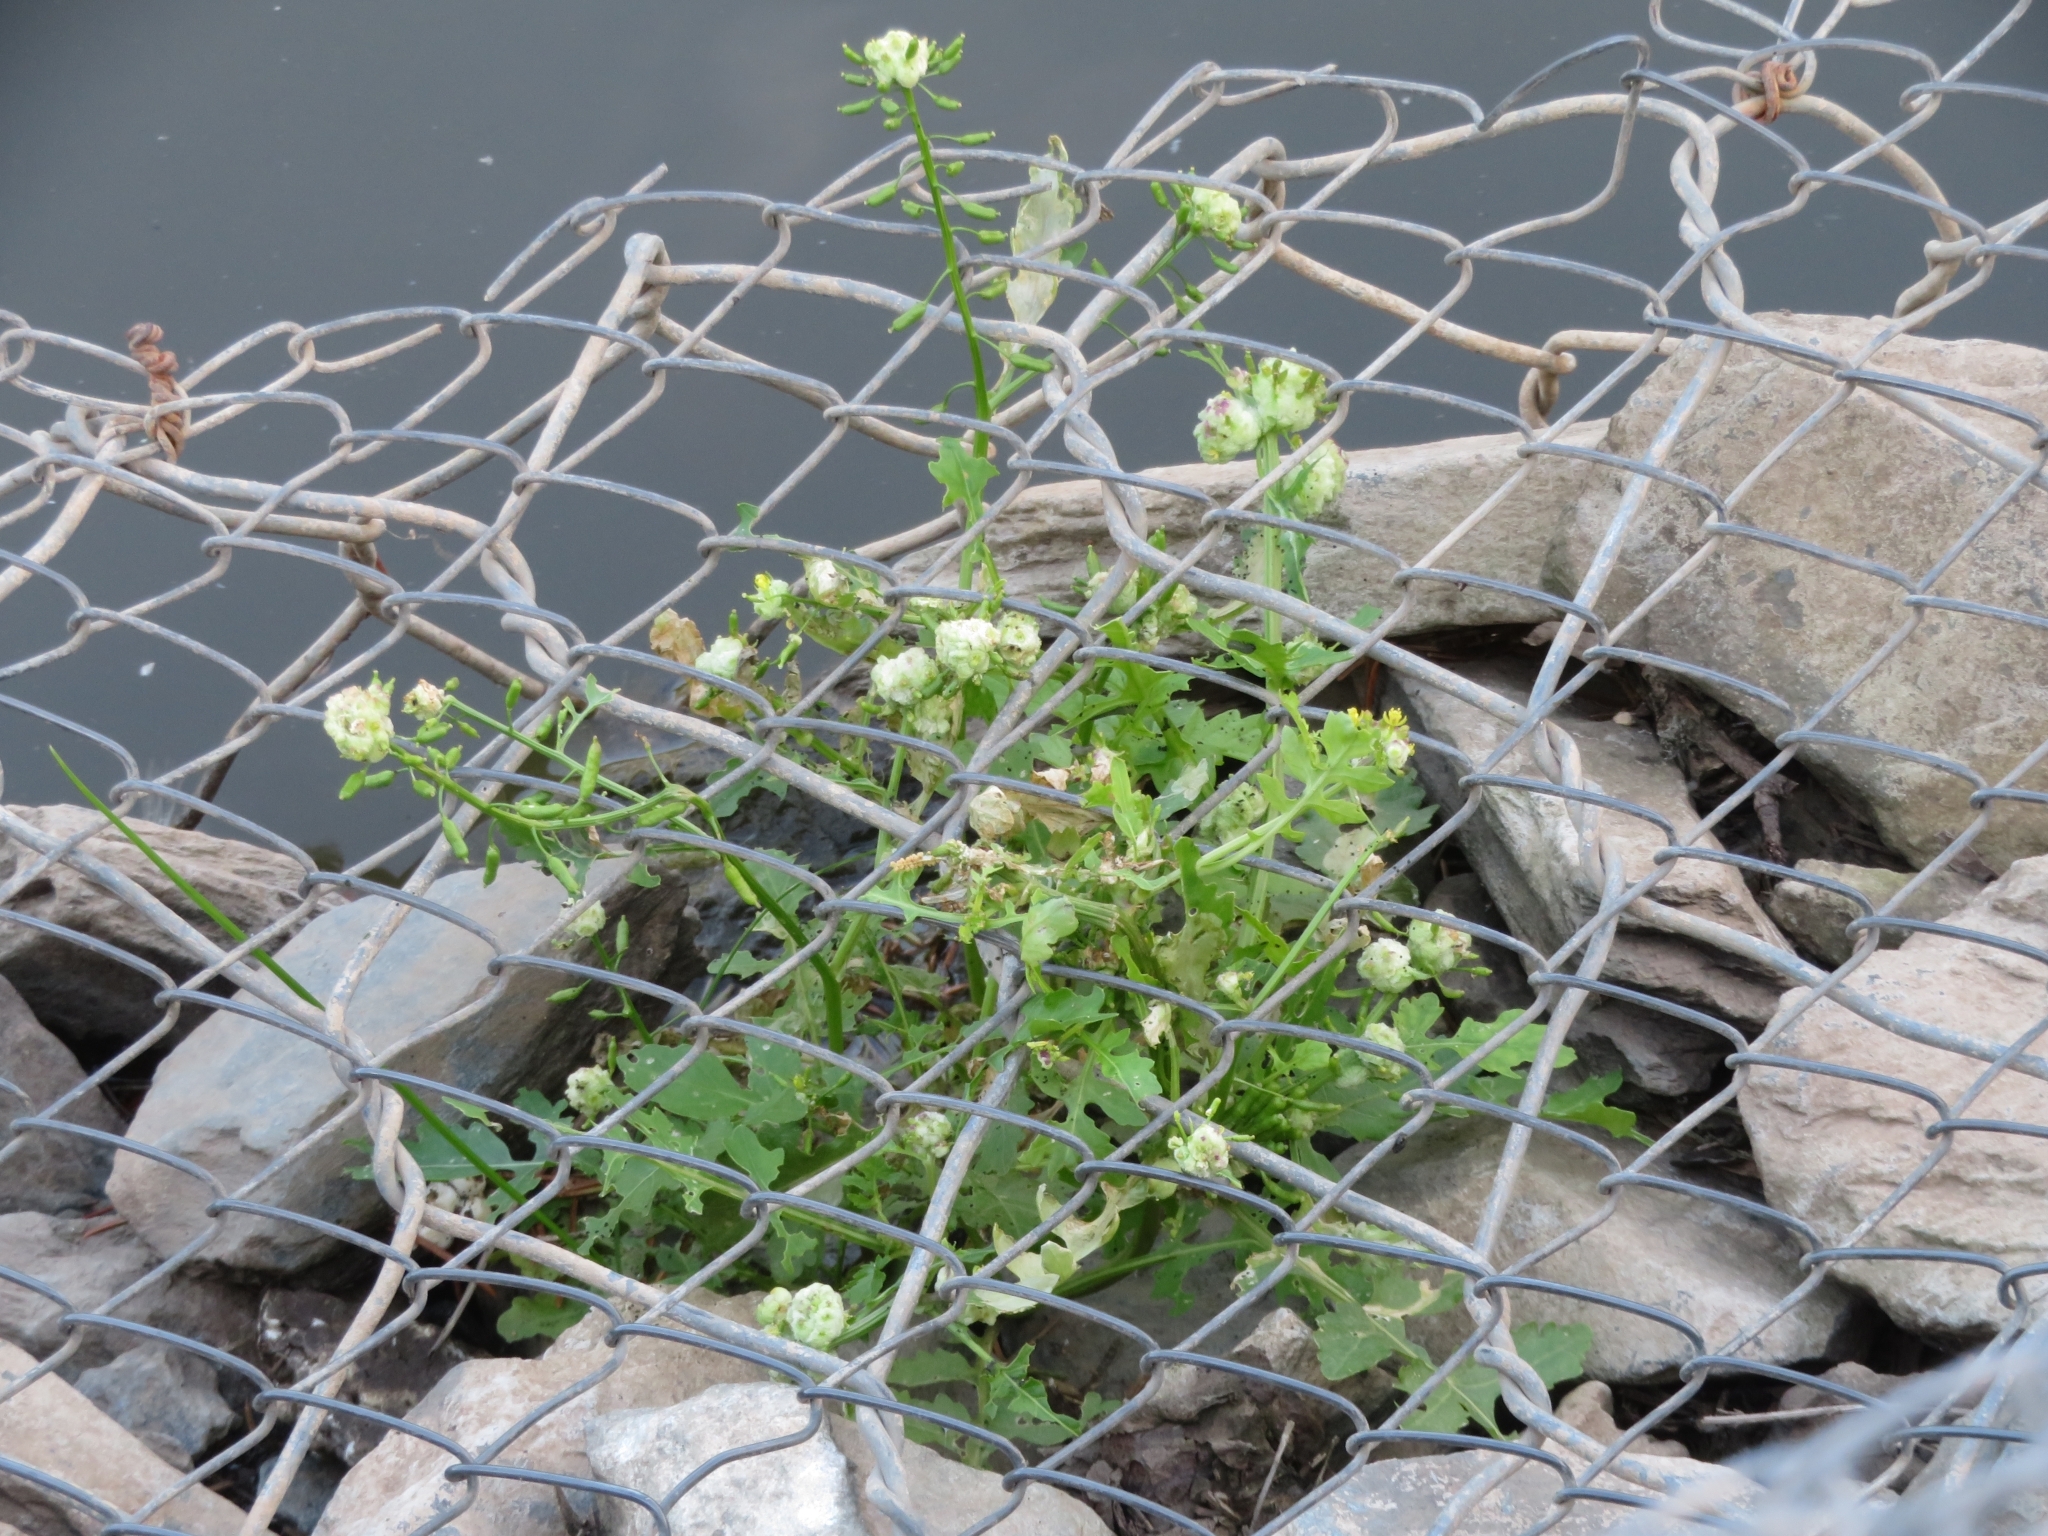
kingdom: Plantae
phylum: Tracheophyta
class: Magnoliopsida
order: Brassicales
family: Brassicaceae
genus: Rorippa
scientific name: Rorippa palustris
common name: Marsh yellow-cress
